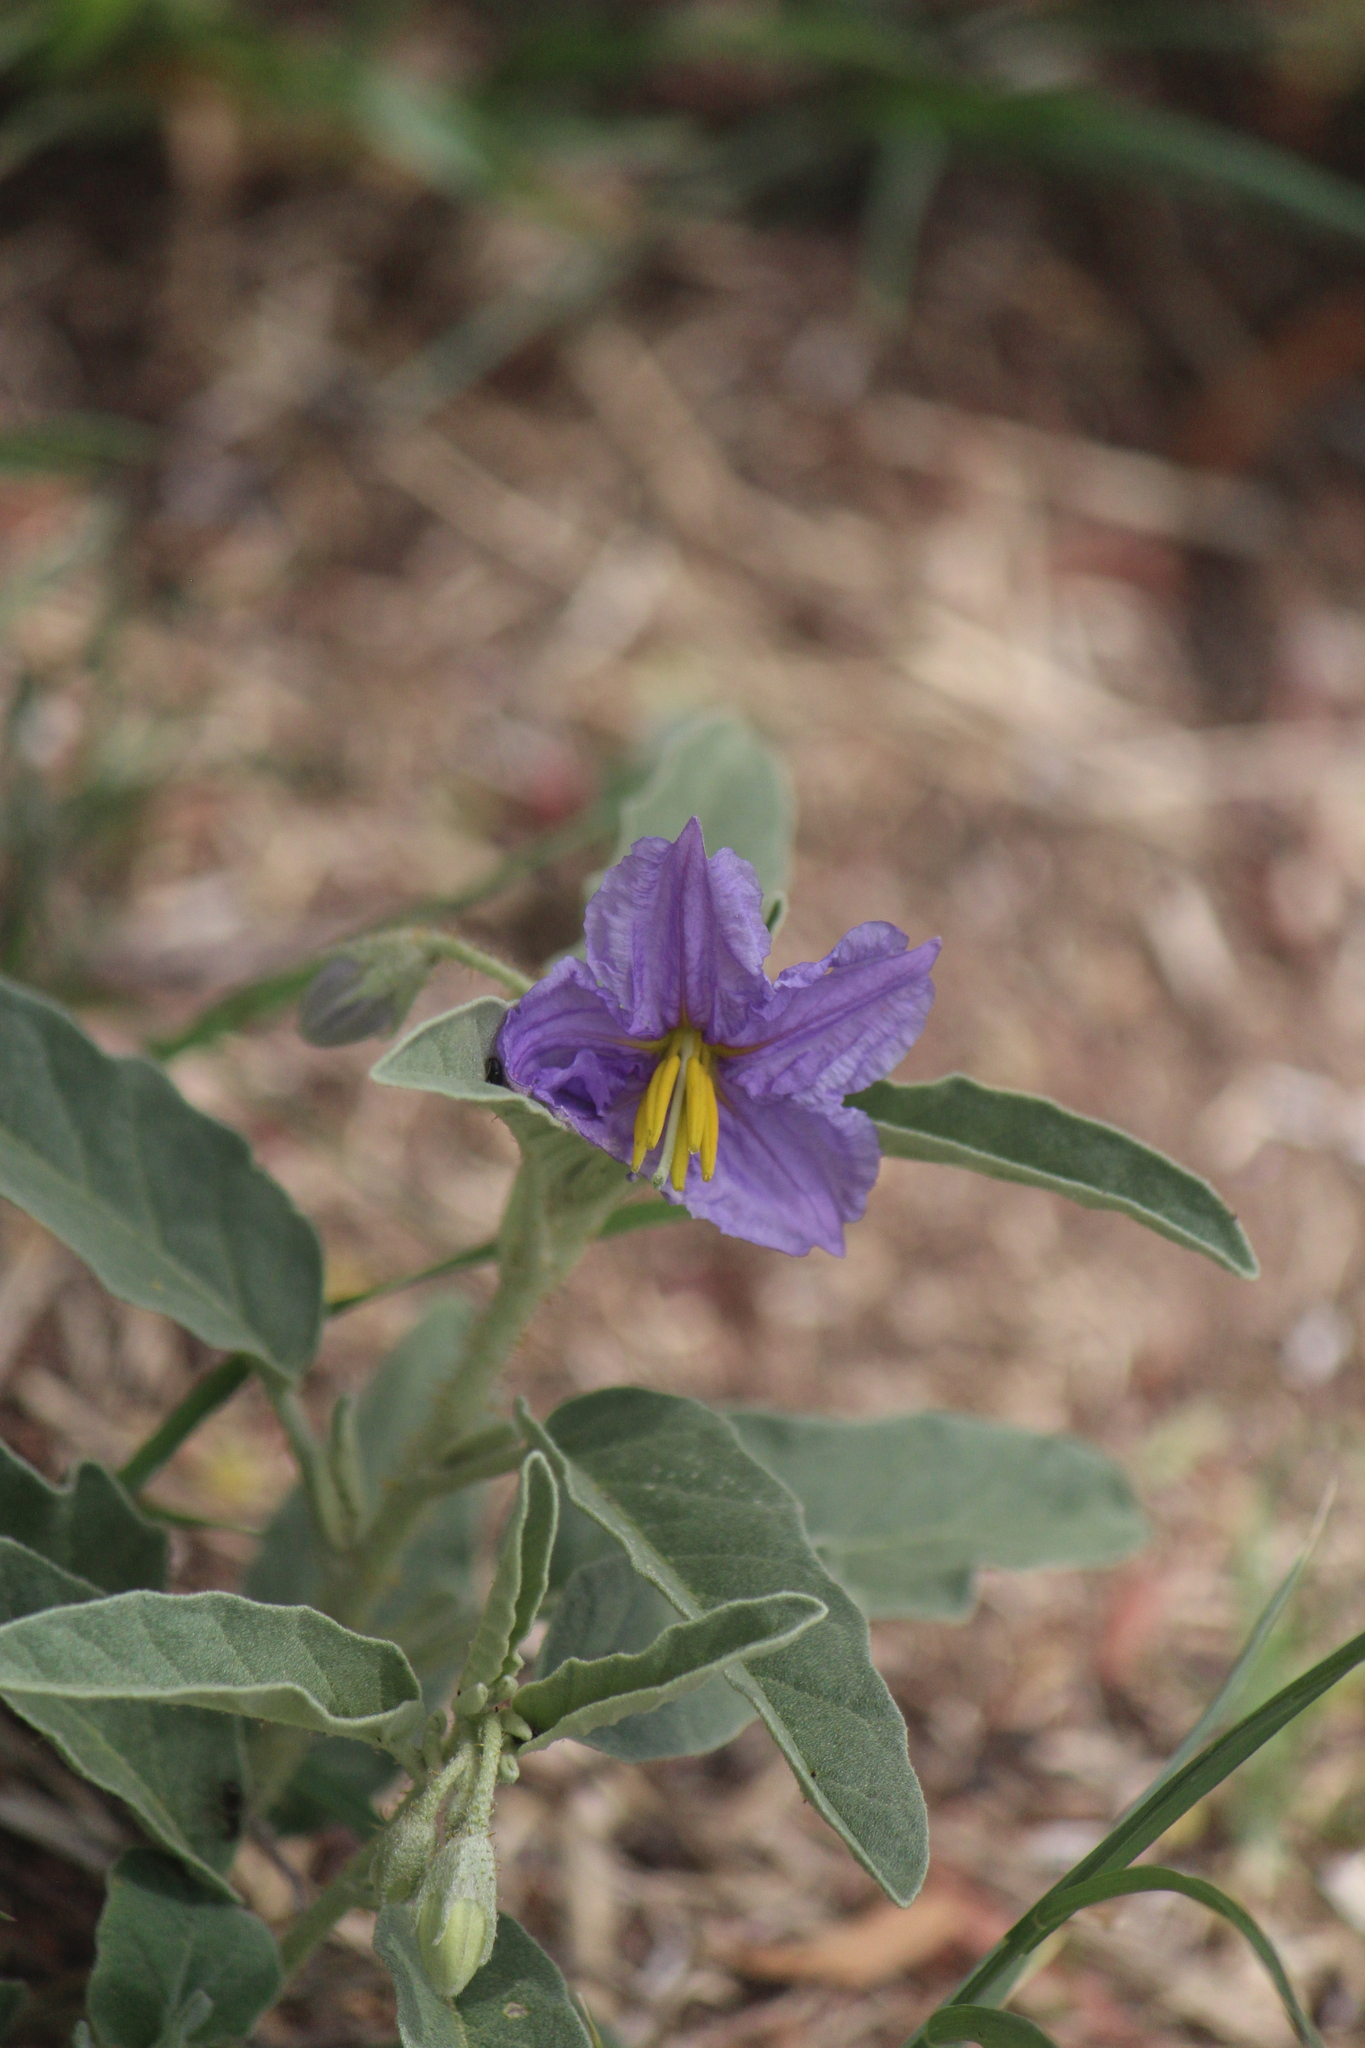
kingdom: Plantae
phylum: Tracheophyta
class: Magnoliopsida
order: Solanales
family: Solanaceae
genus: Solanum
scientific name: Solanum elaeagnifolium
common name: Silverleaf nightshade
